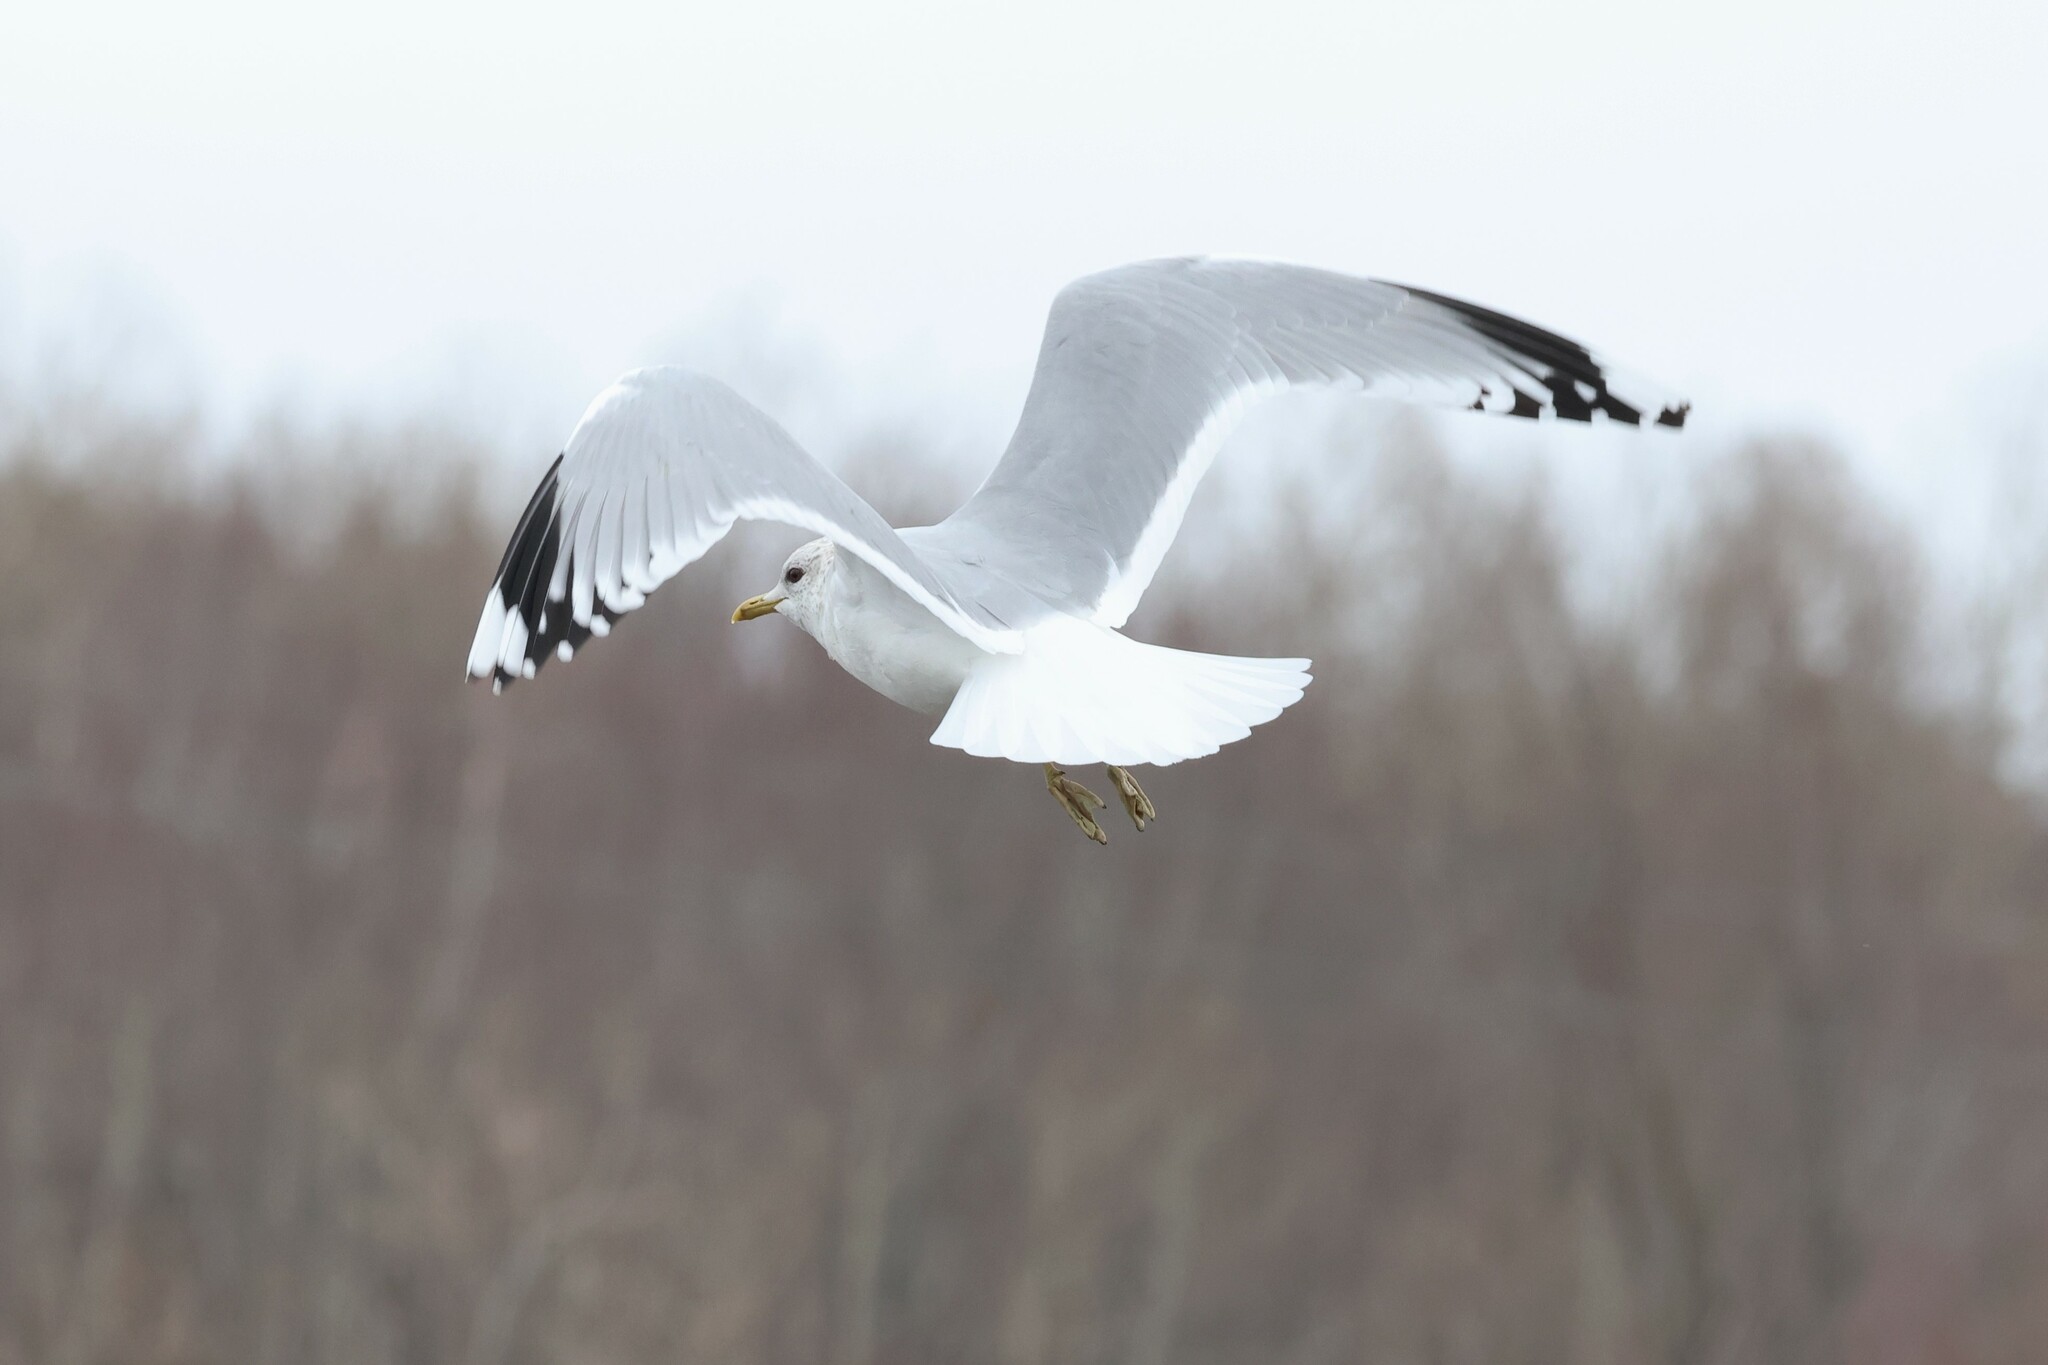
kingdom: Animalia
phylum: Chordata
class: Aves
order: Charadriiformes
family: Laridae
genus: Larus
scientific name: Larus canus
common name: Mew gull
